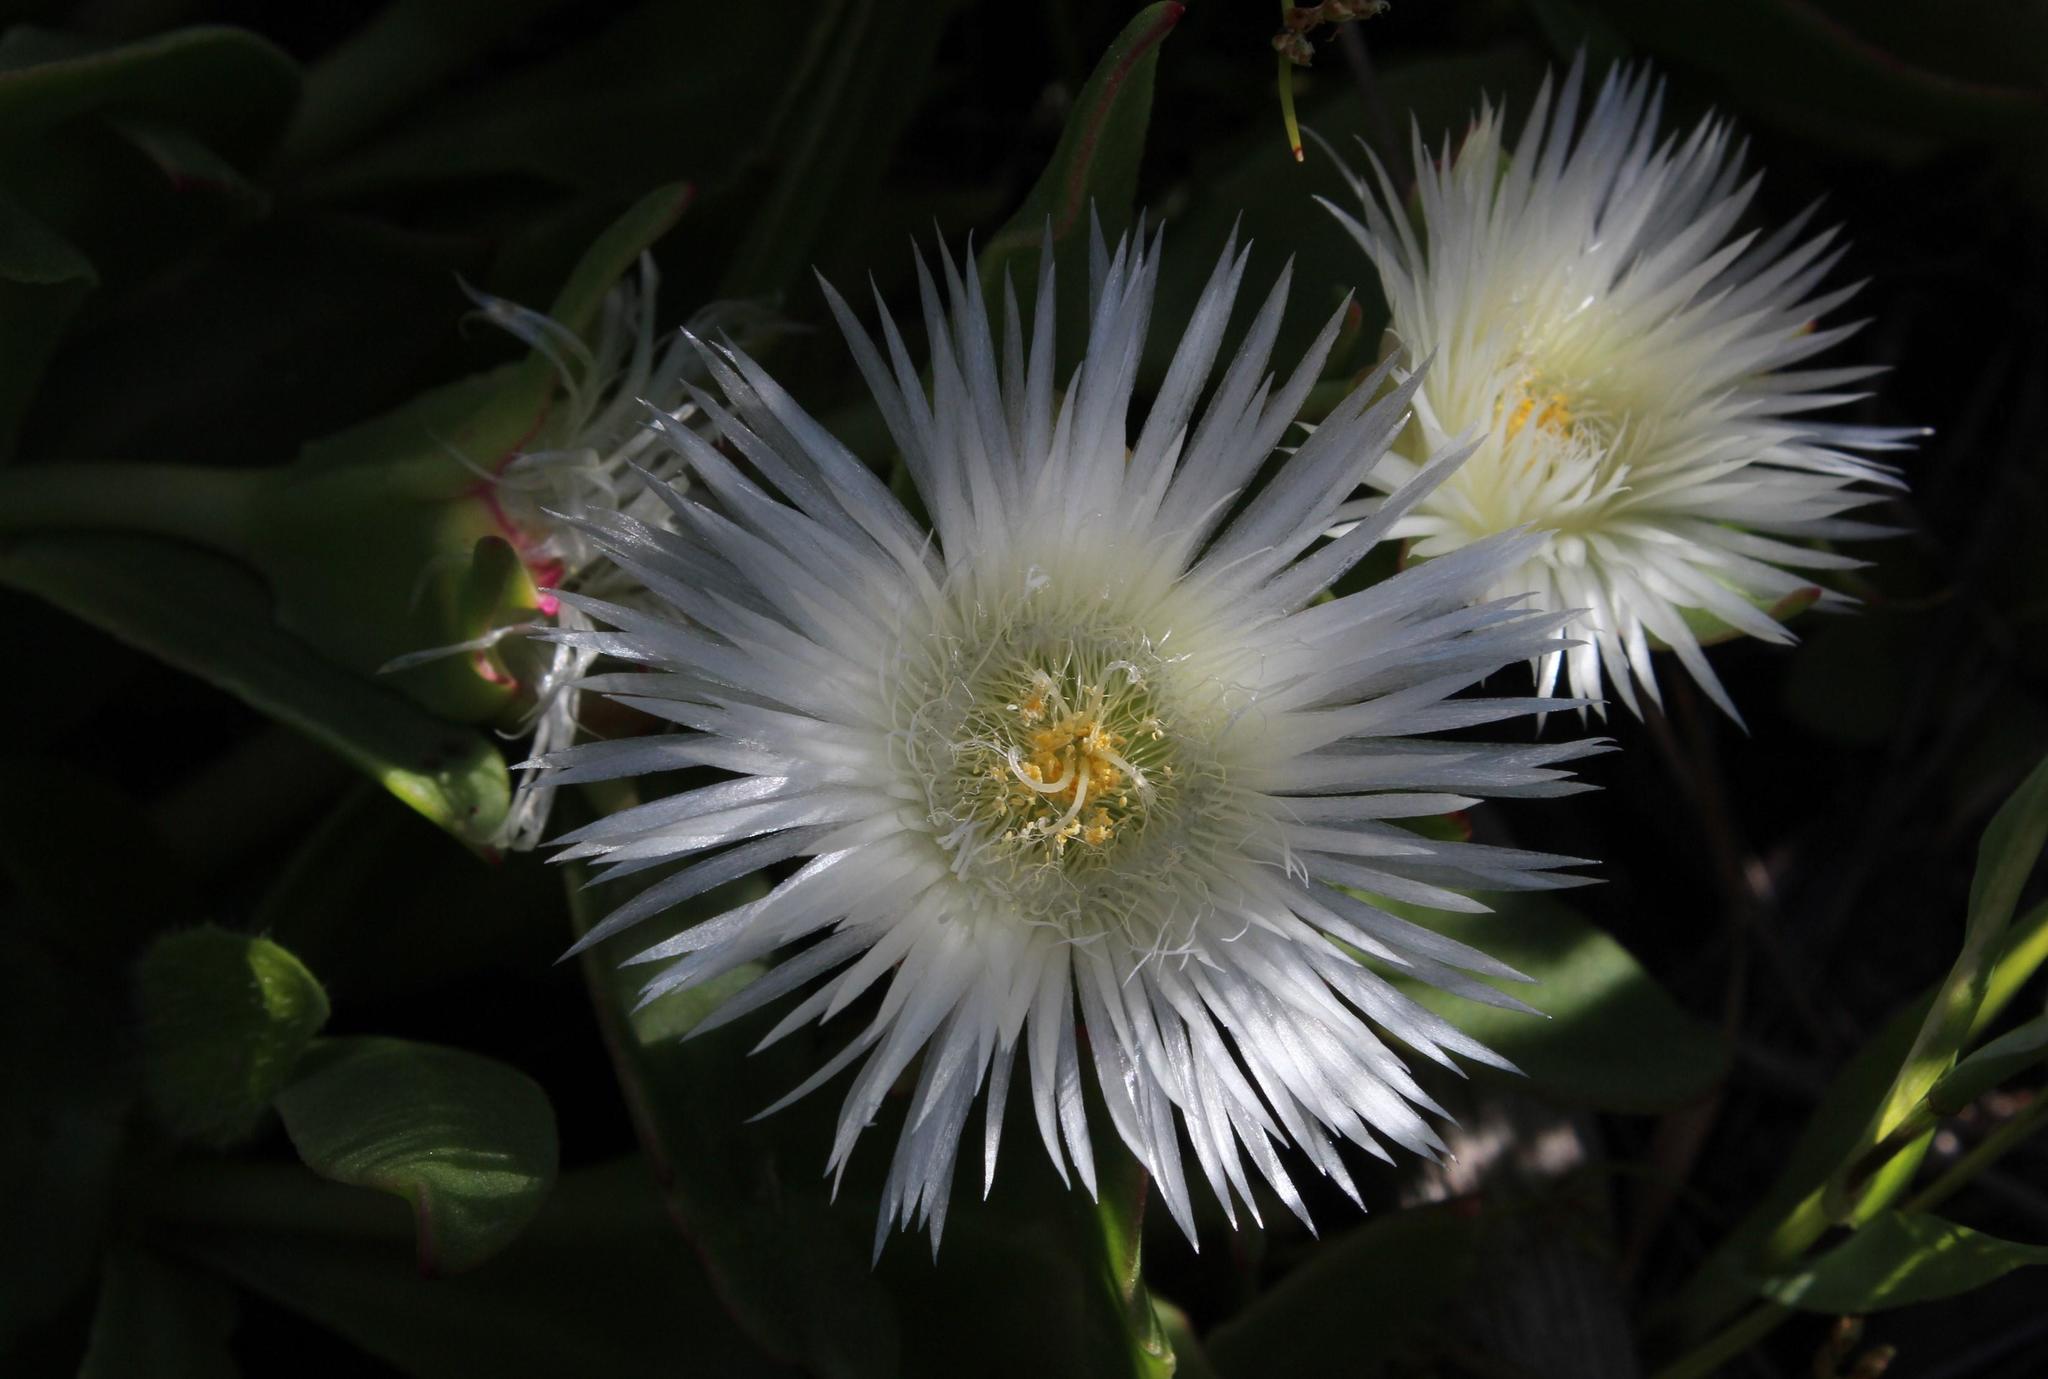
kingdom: Plantae
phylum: Tracheophyta
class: Magnoliopsida
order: Caryophyllales
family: Aizoaceae
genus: Skiatophytum
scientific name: Skiatophytum tripolium
